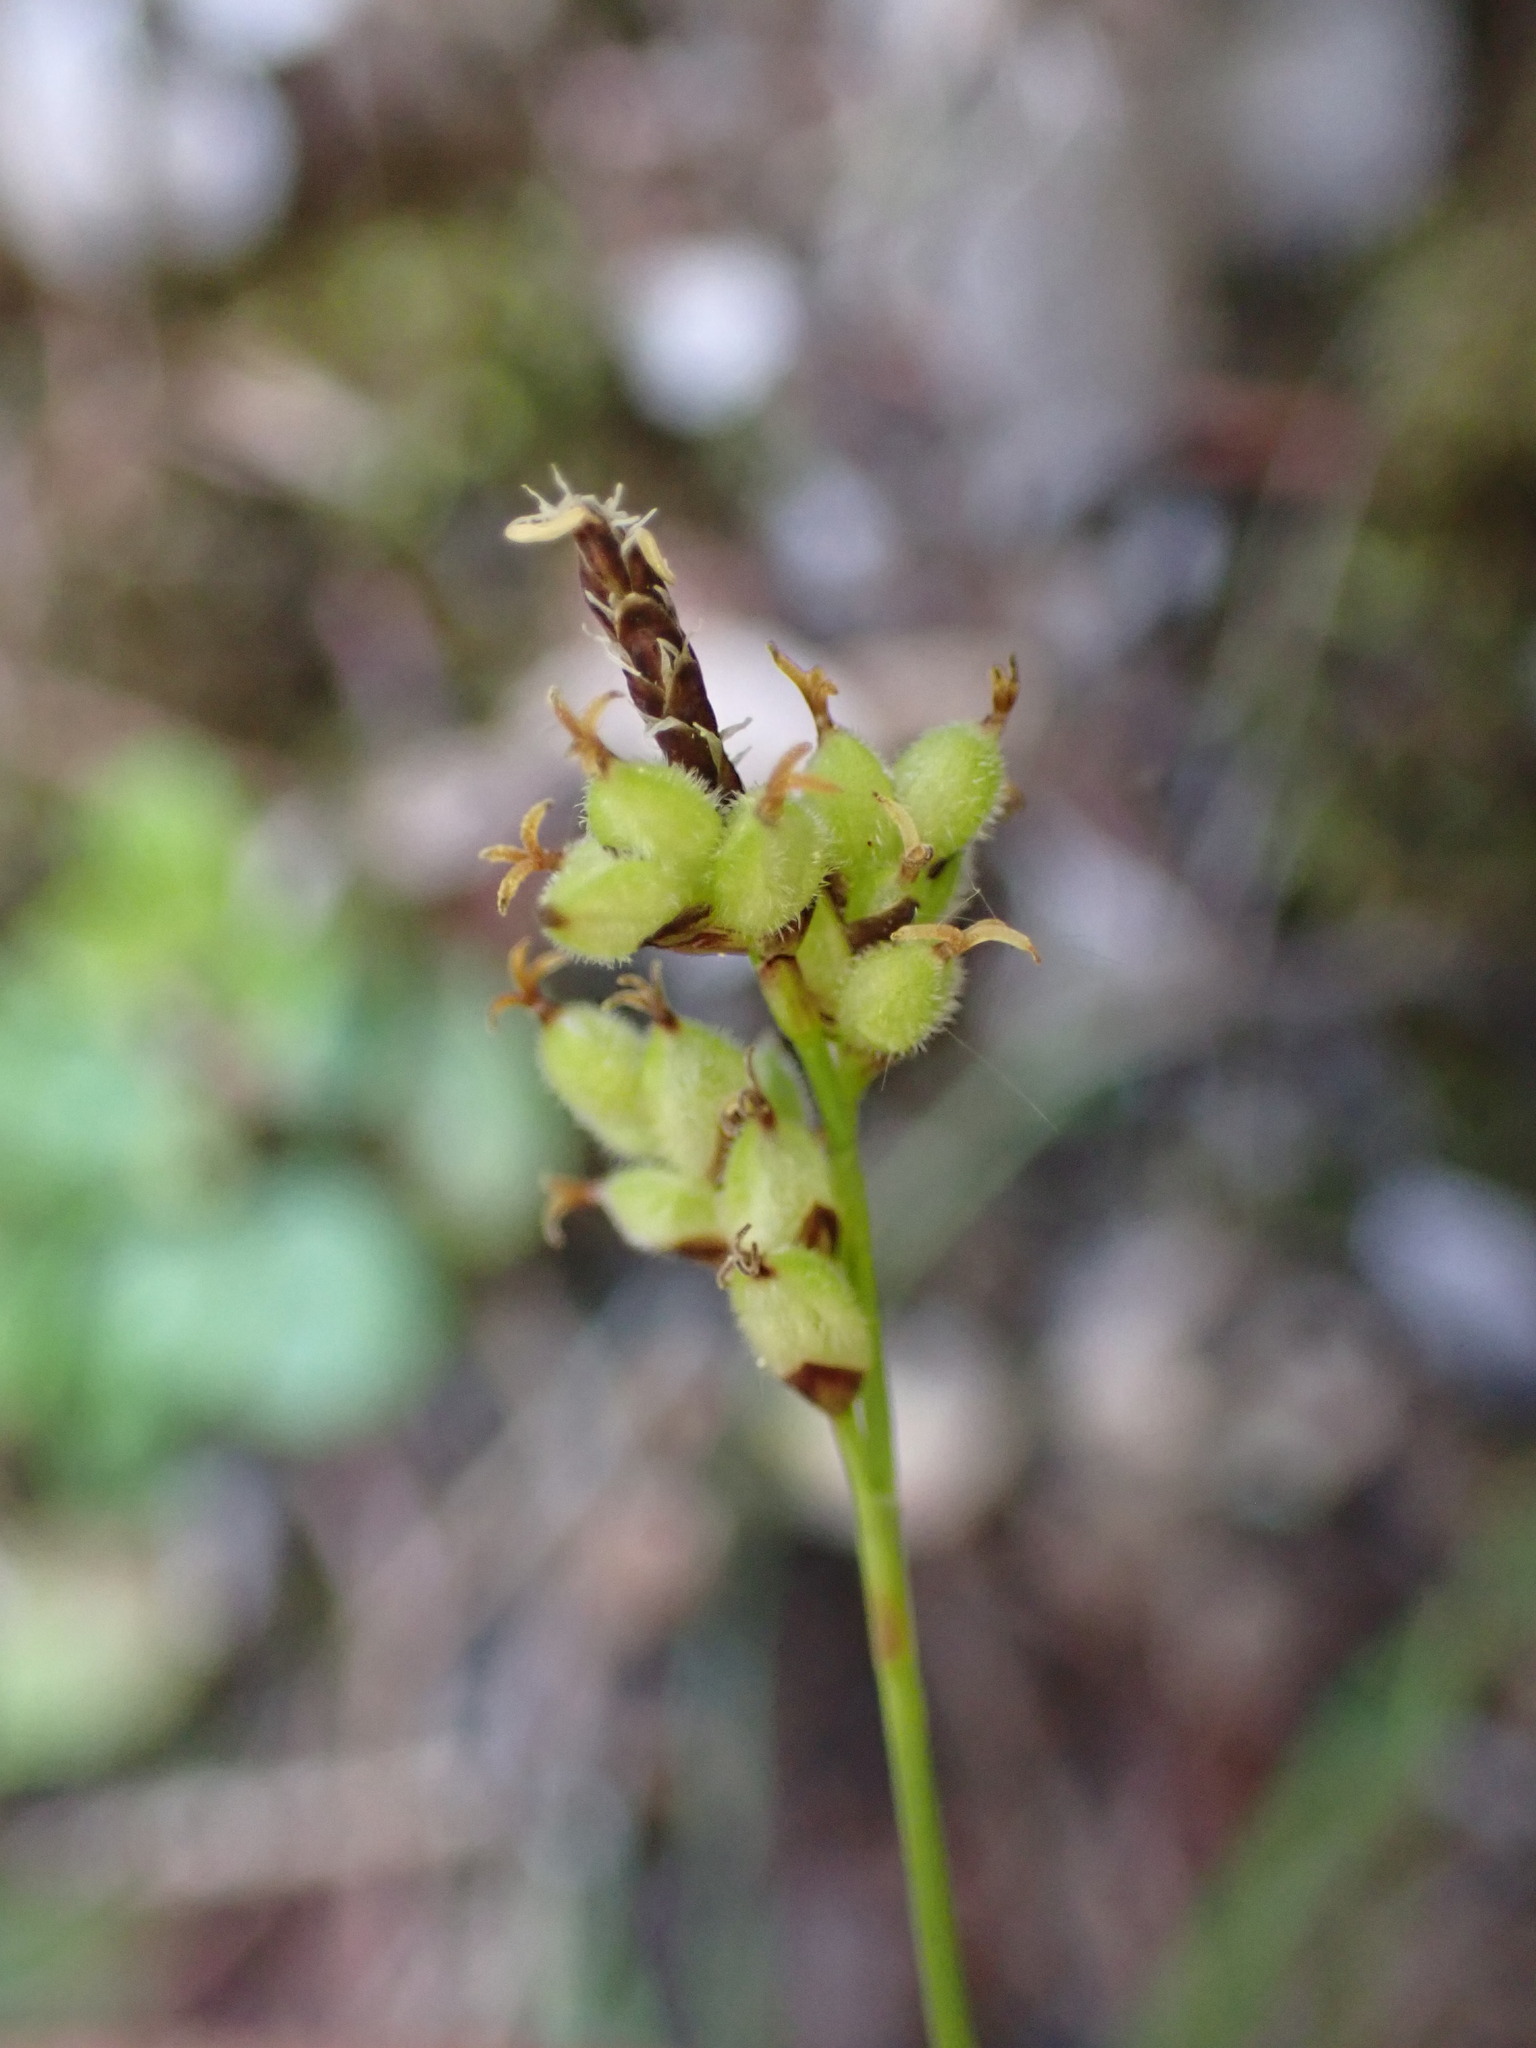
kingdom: Plantae
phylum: Tracheophyta
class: Liliopsida
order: Poales
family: Cyperaceae
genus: Carex
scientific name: Carex concinna
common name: Beautiful sedge
